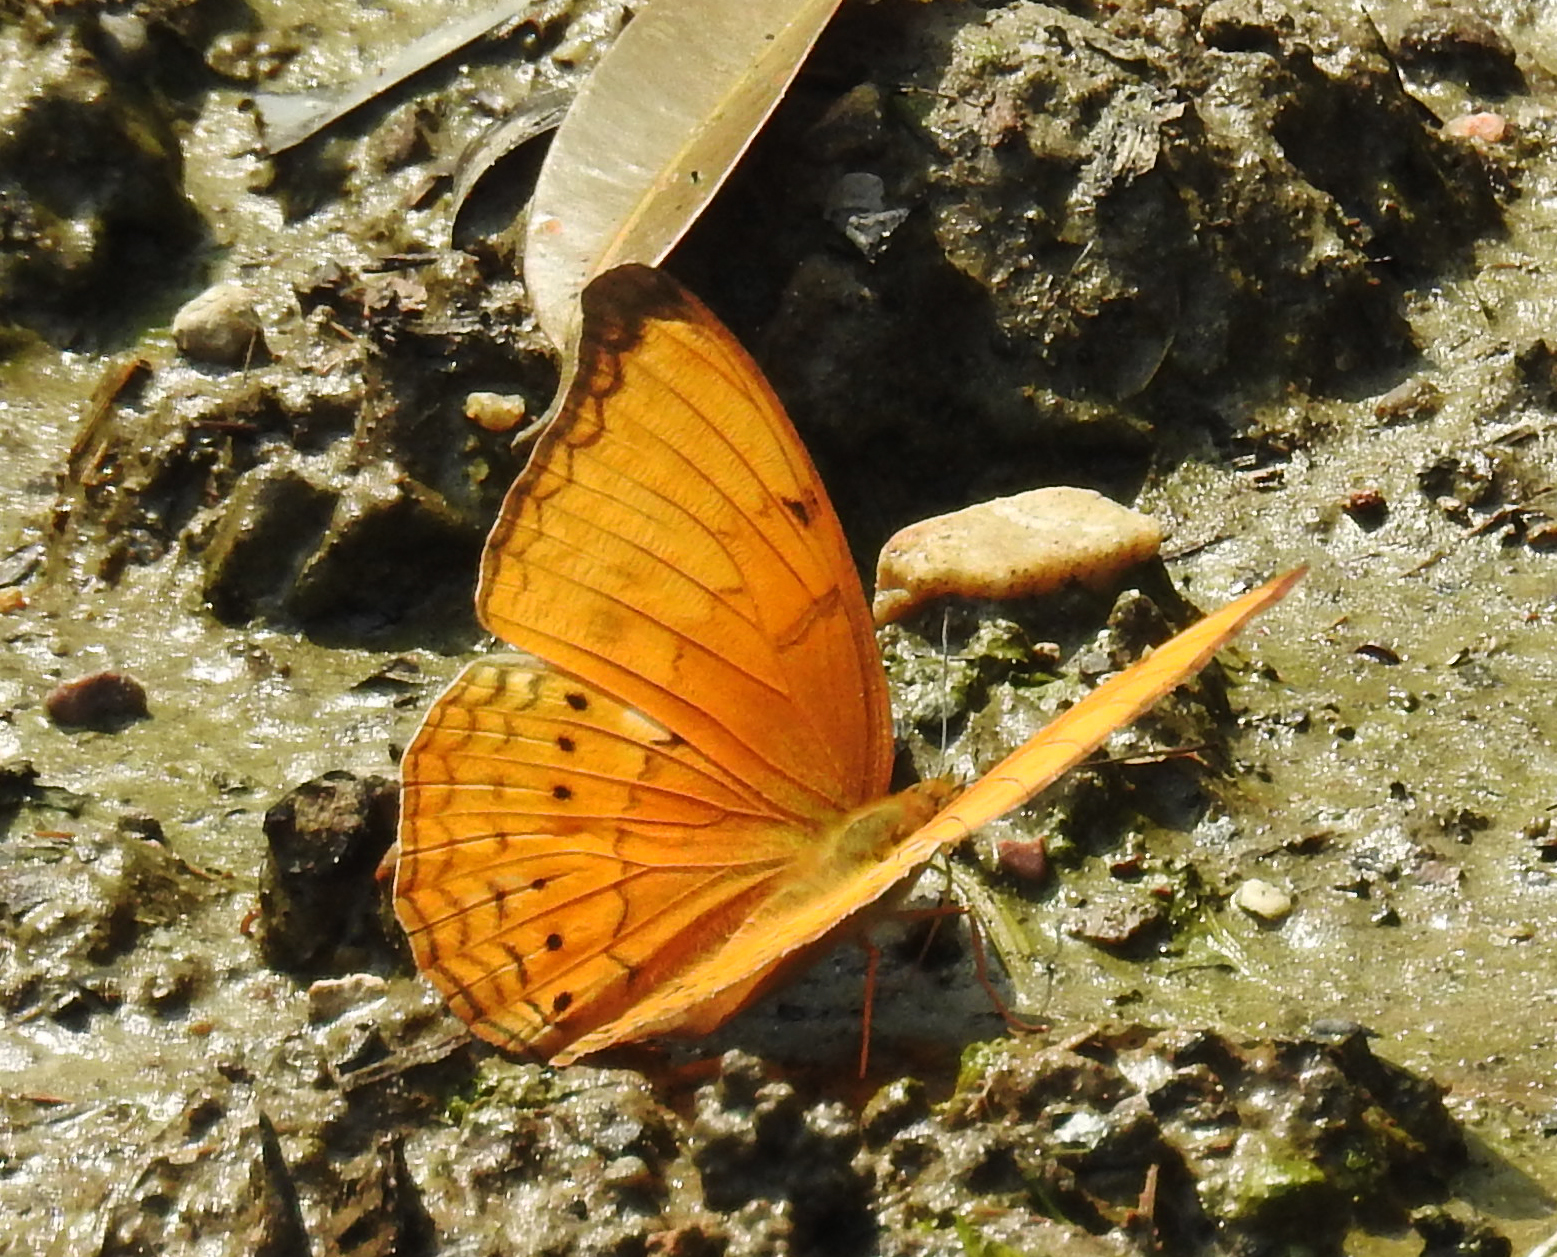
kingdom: Animalia
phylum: Arthropoda
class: Insecta
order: Lepidoptera
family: Nymphalidae
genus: Cirrochroa
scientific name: Cirrochroa aoris
